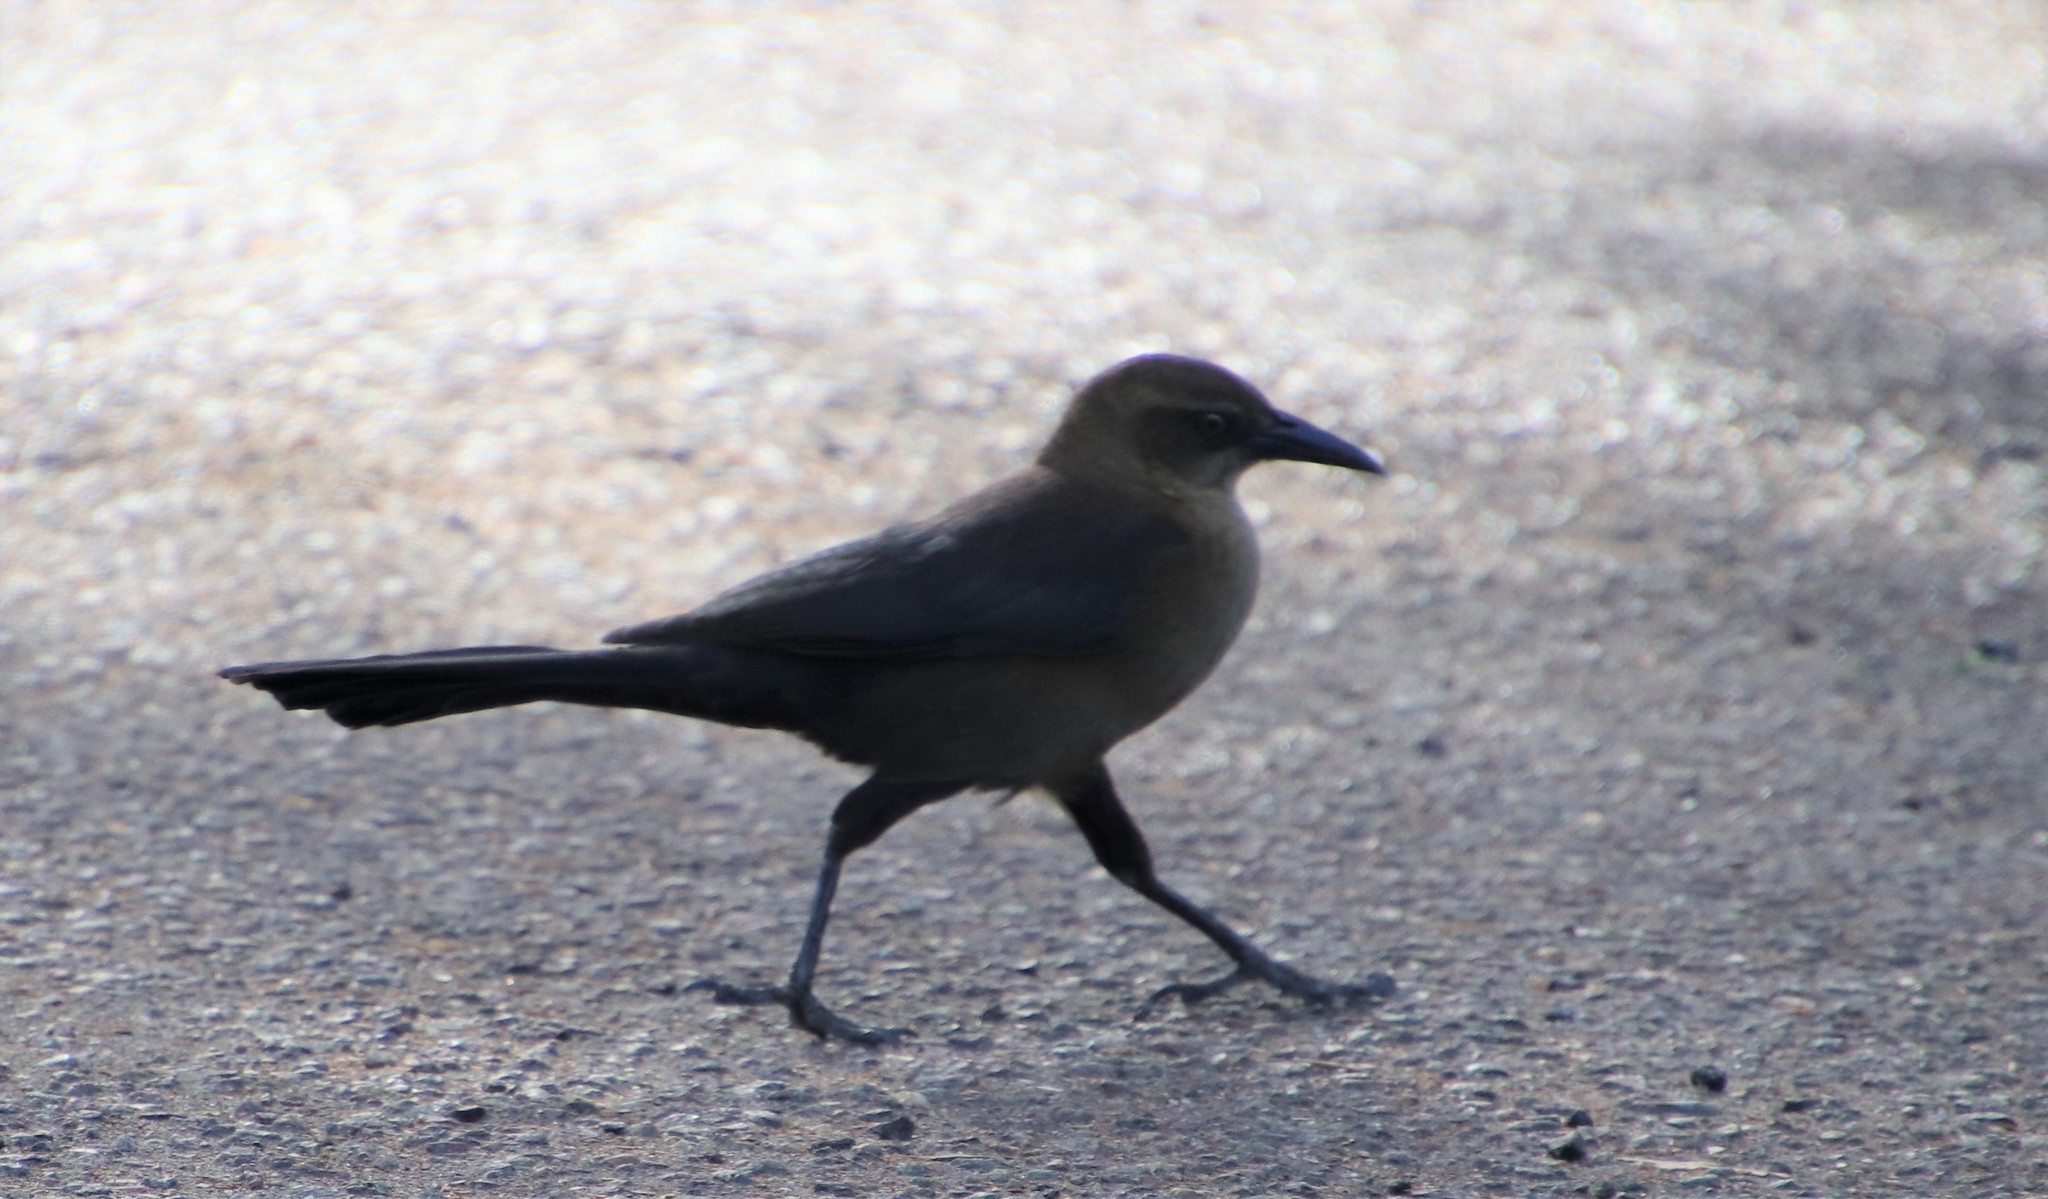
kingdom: Animalia
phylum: Chordata
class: Aves
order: Passeriformes
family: Icteridae
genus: Quiscalus
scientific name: Quiscalus mexicanus
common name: Great-tailed grackle
